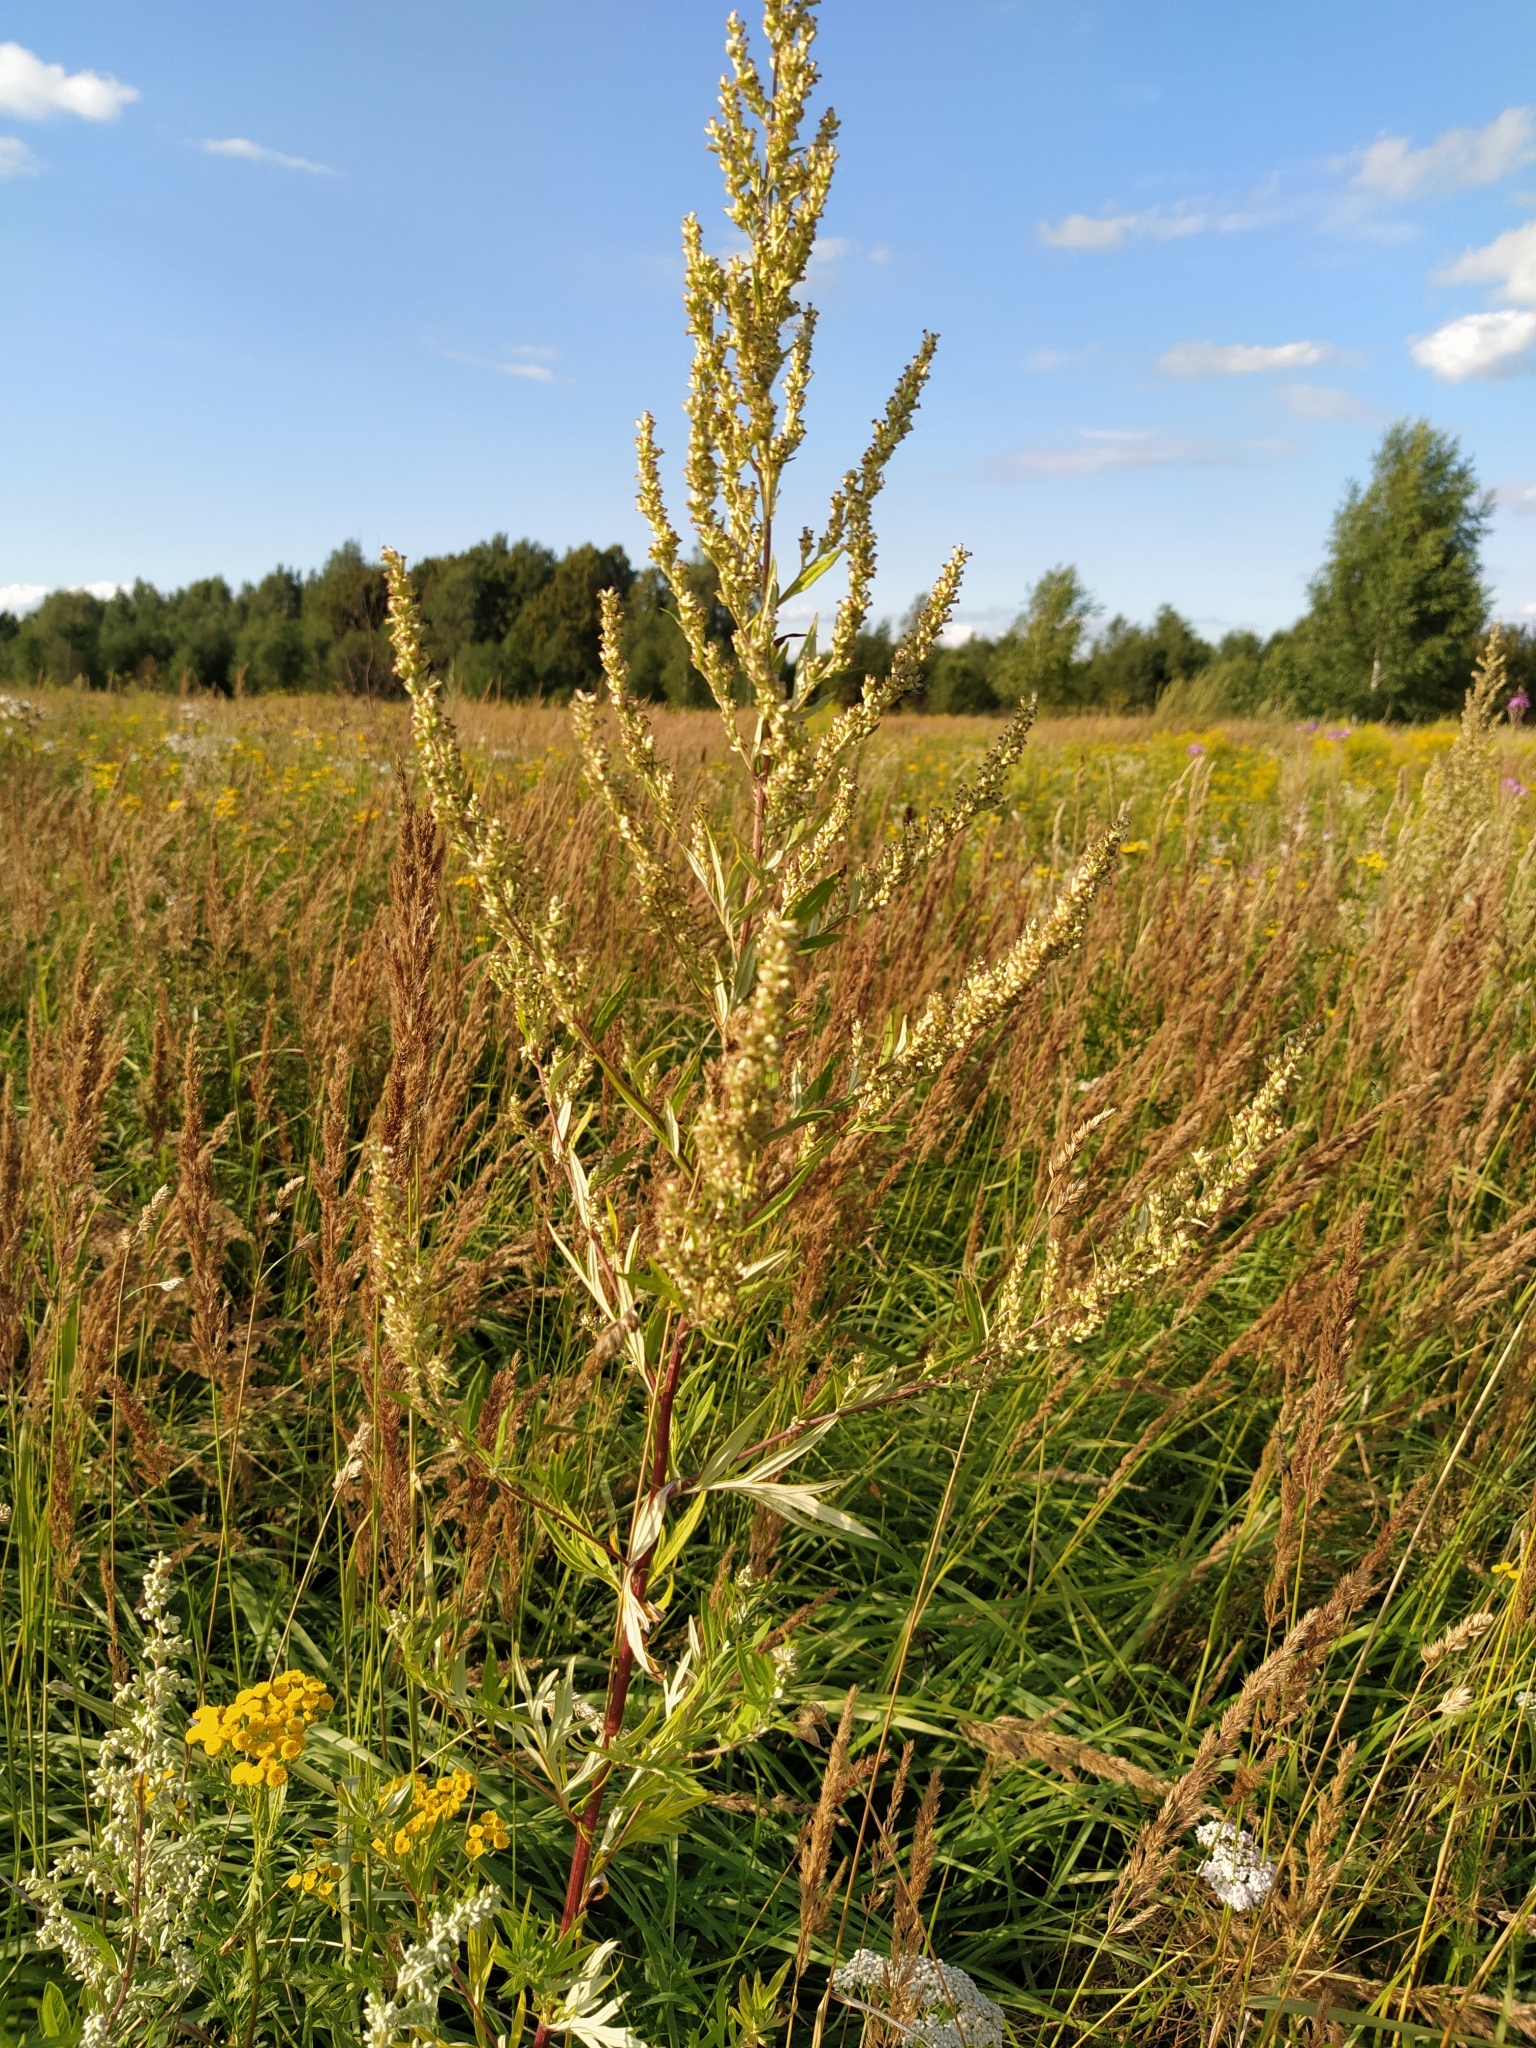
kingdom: Plantae
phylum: Tracheophyta
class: Magnoliopsida
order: Asterales
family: Asteraceae
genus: Artemisia
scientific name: Artemisia vulgaris
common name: Mugwort
